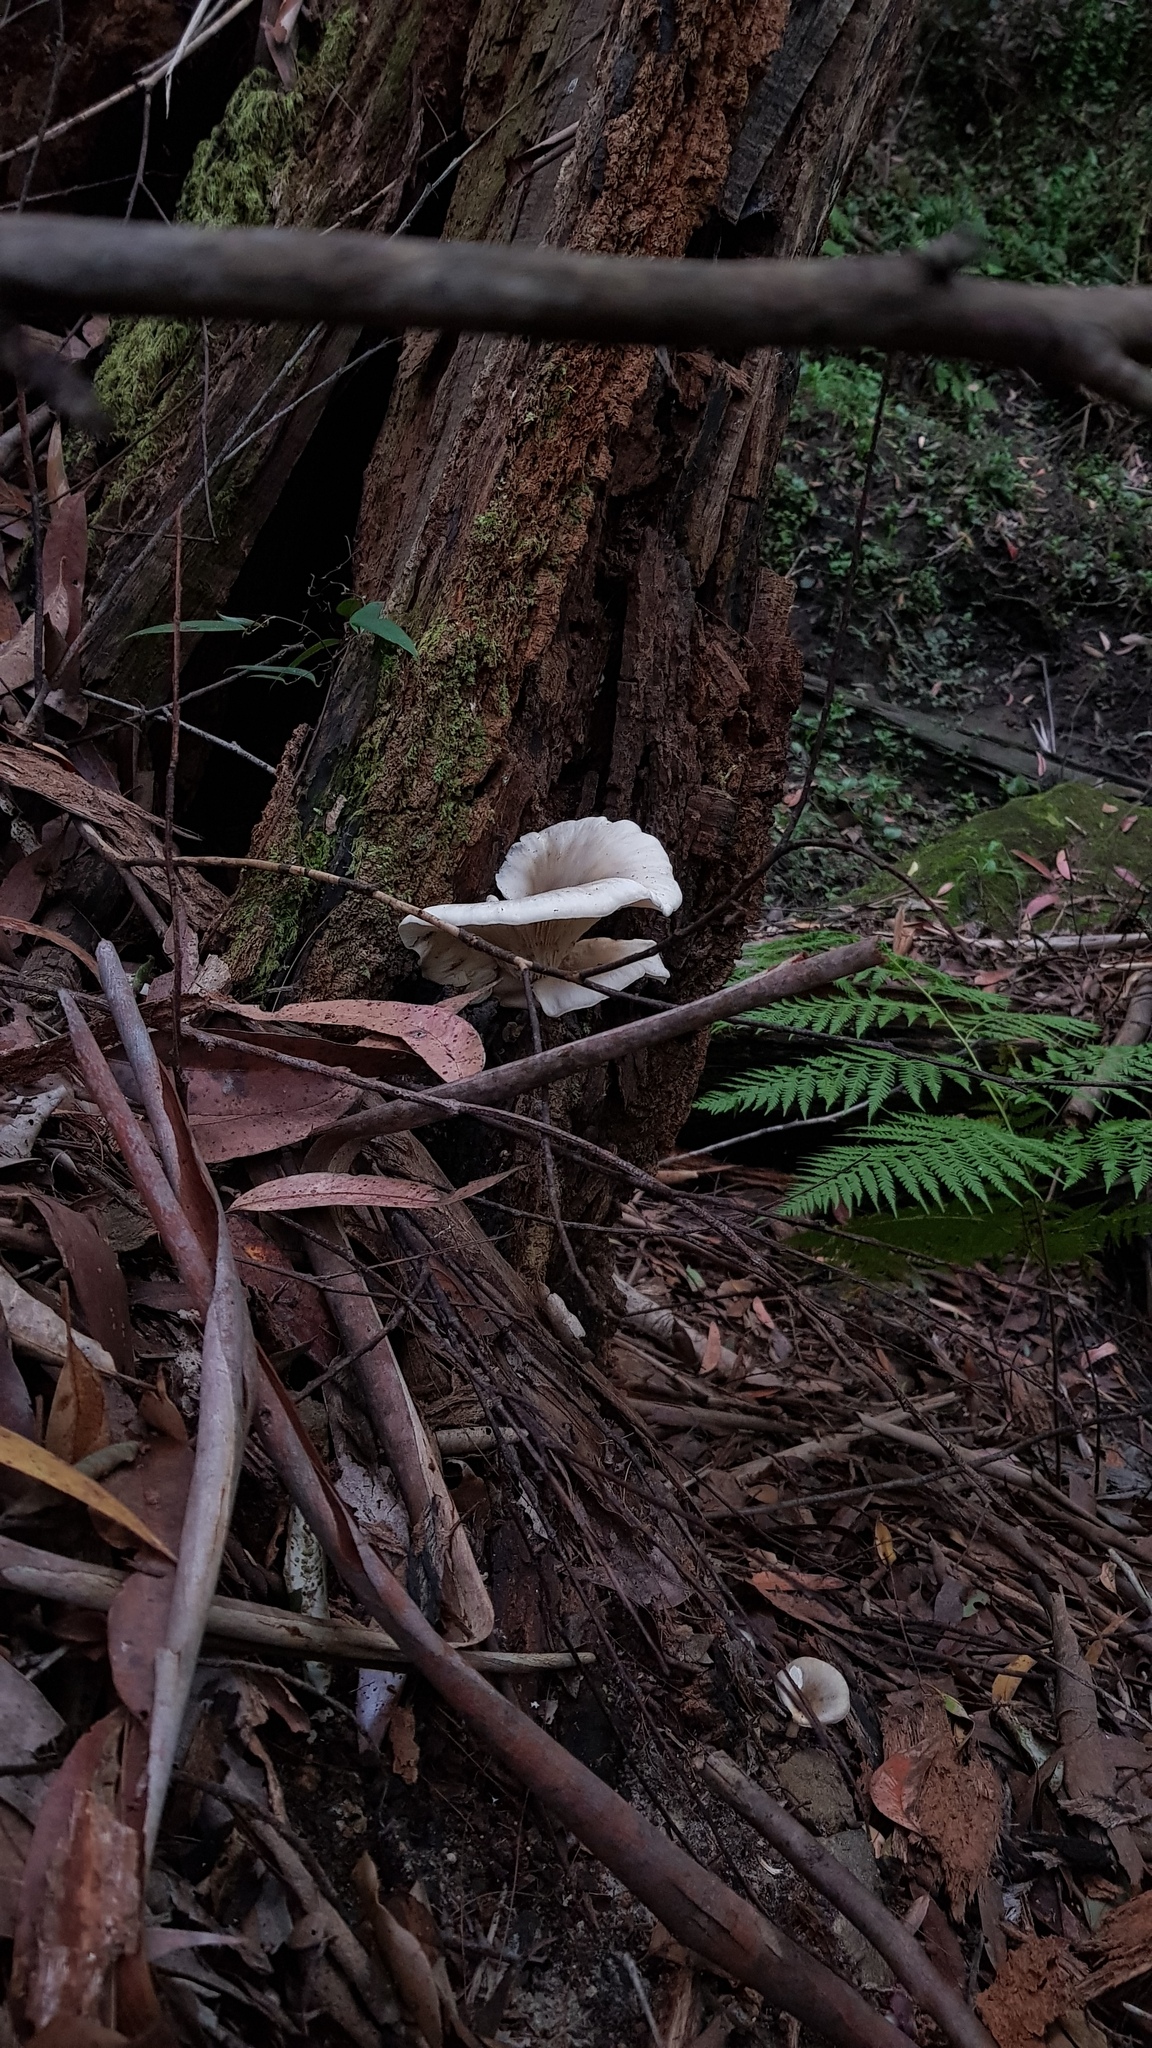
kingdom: Fungi
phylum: Basidiomycota
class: Agaricomycetes
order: Agaricales
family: Omphalotaceae
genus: Omphalotus
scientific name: Omphalotus nidiformis
